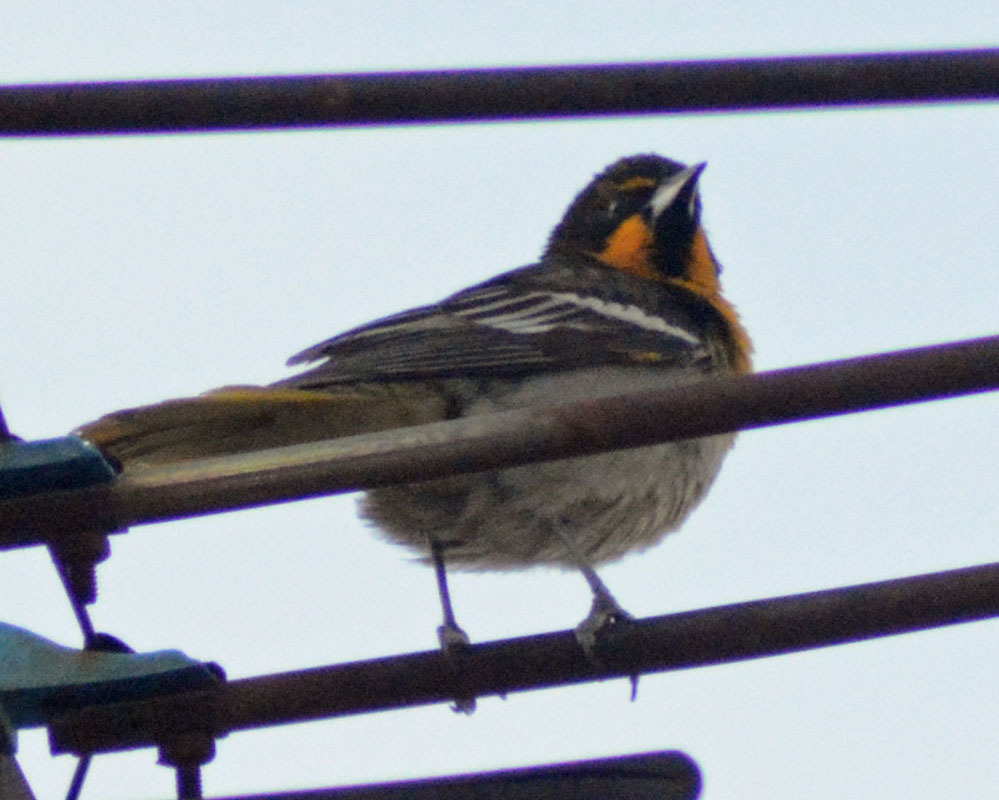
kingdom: Animalia
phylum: Chordata
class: Aves
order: Passeriformes
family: Icteridae
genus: Icterus
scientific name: Icterus abeillei
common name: Black-backed oriole
